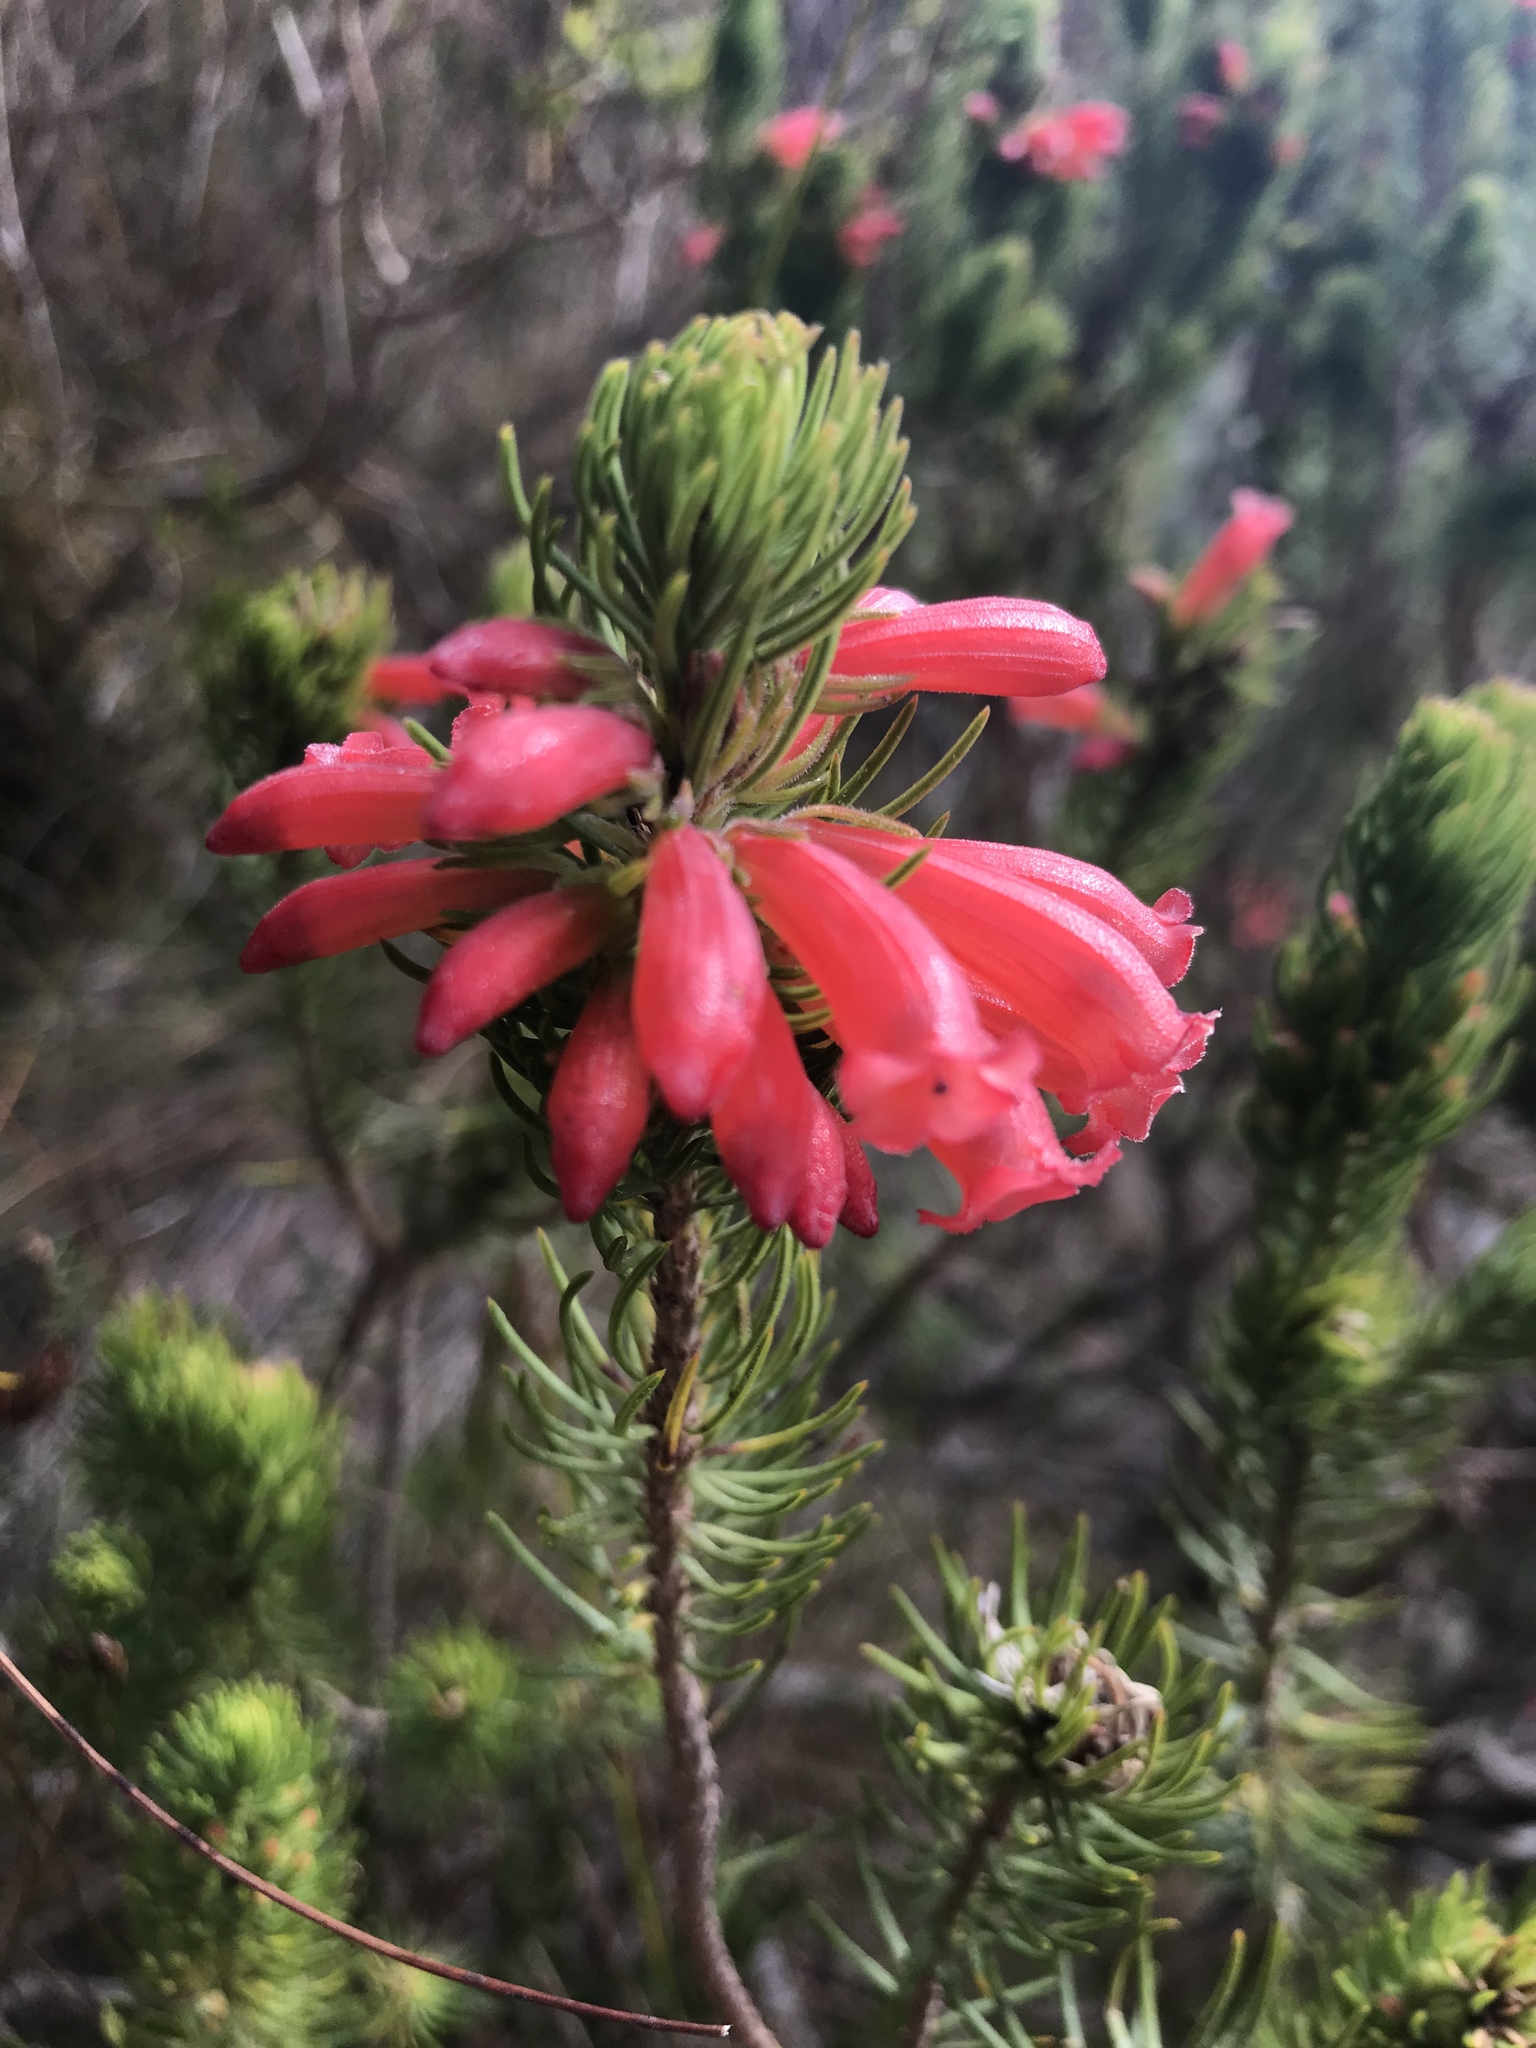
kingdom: Plantae
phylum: Tracheophyta
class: Magnoliopsida
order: Ericales
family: Ericaceae
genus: Erica
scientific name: Erica viscaria
